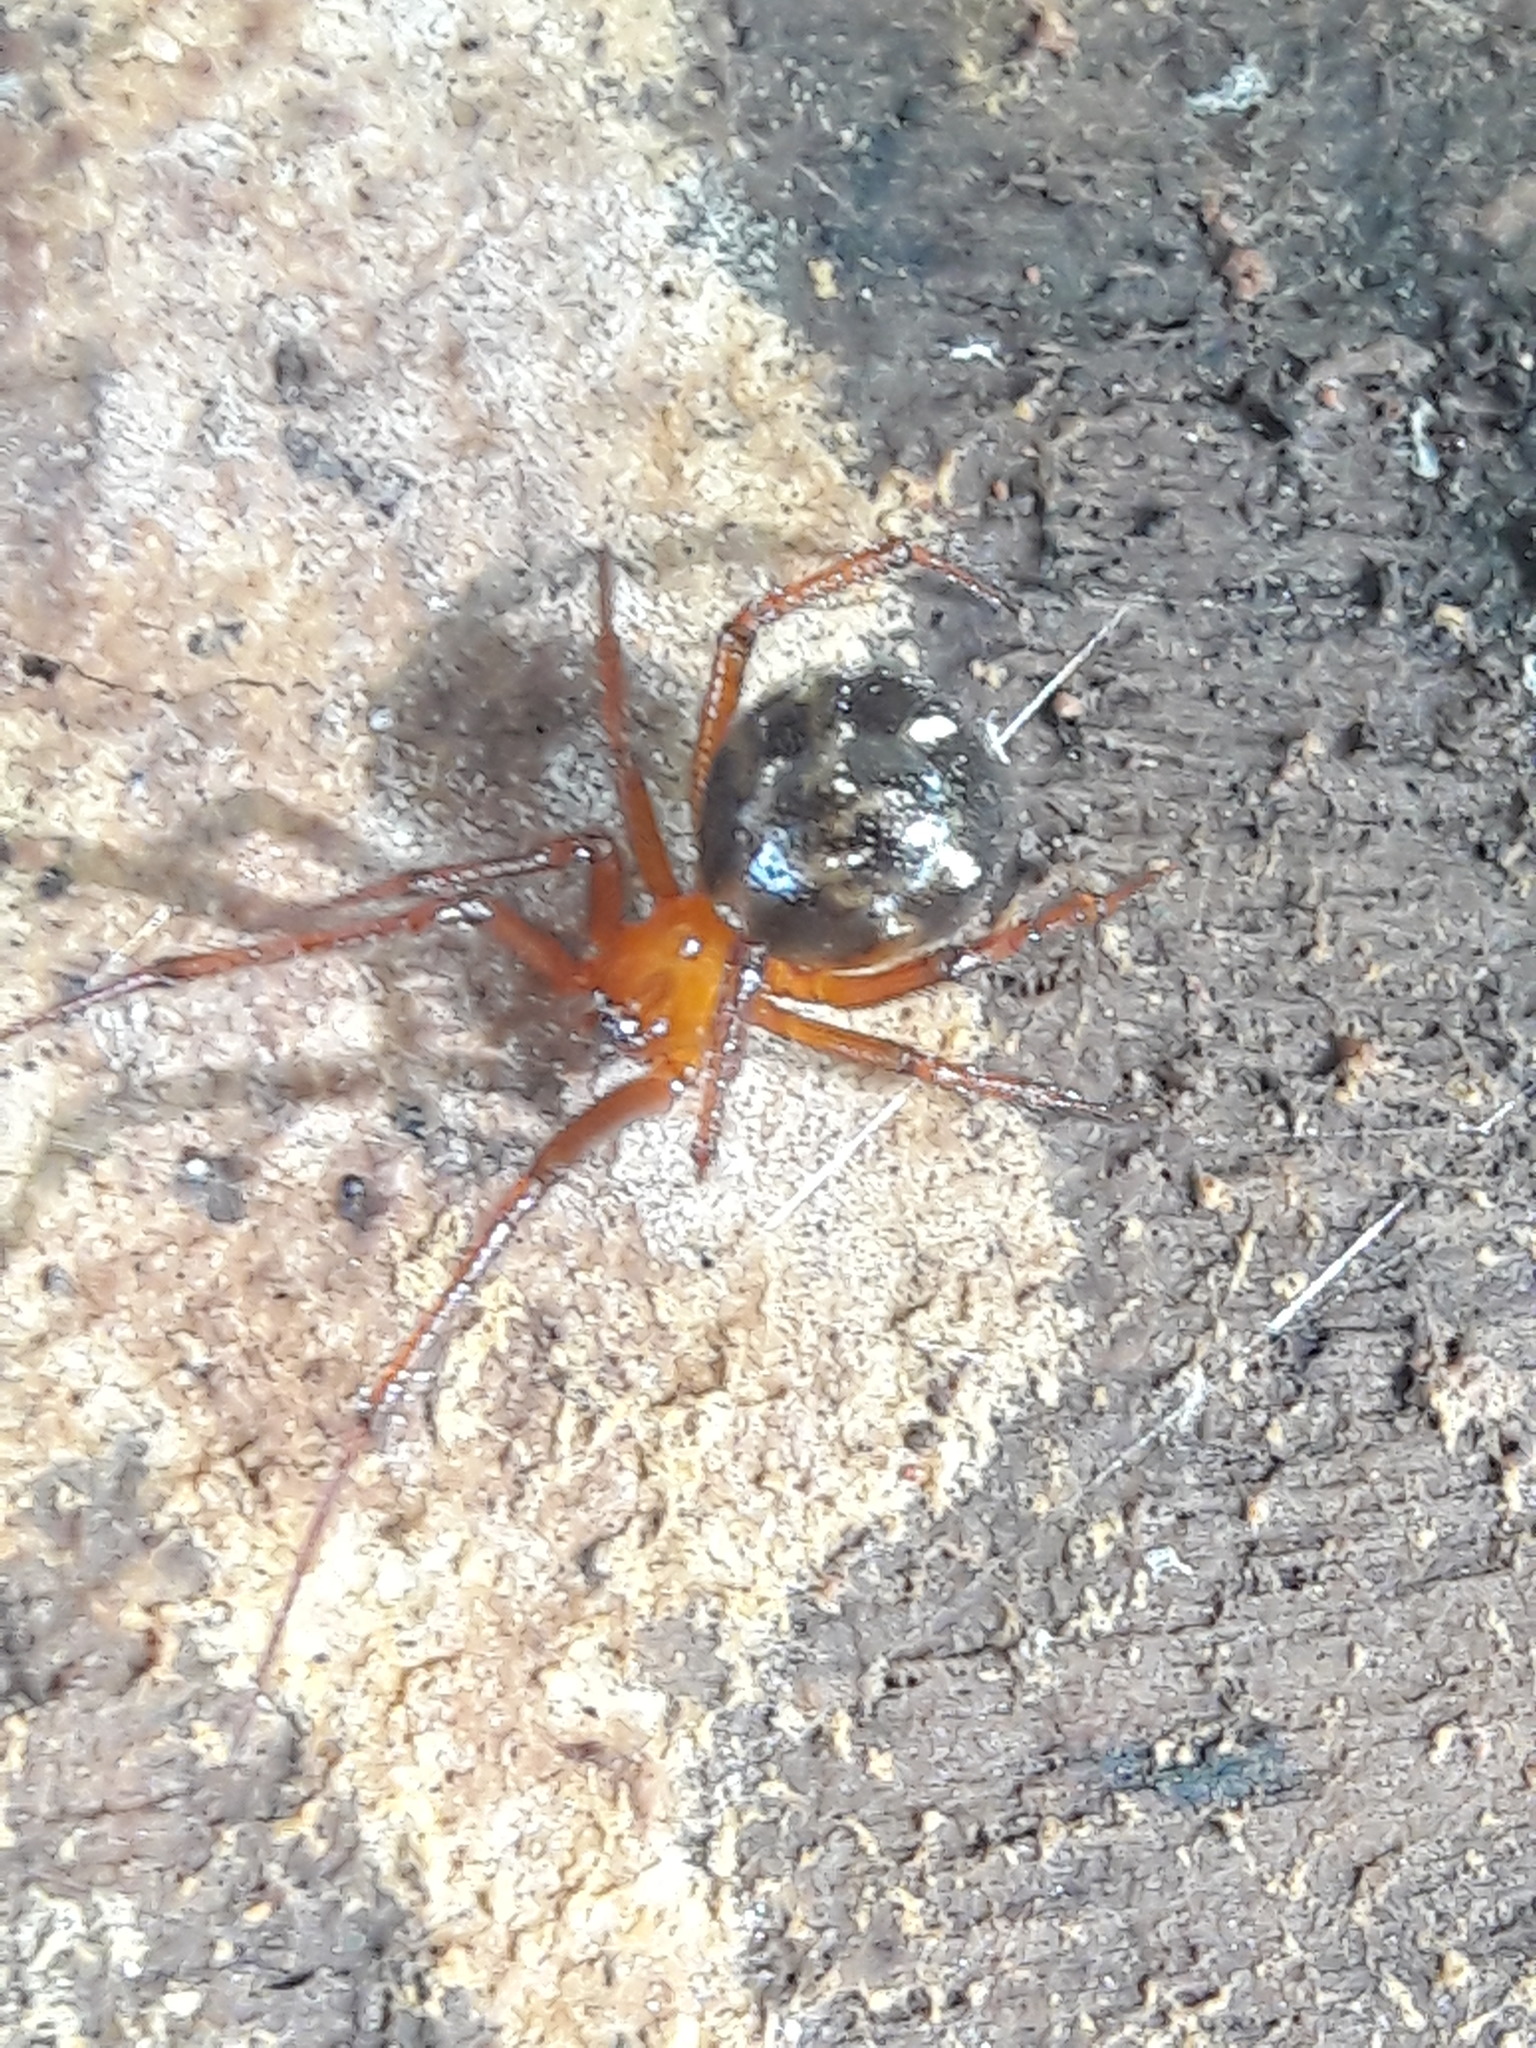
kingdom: Animalia
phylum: Arthropoda
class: Arachnida
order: Araneae
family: Theridiidae
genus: Nesticodes
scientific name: Nesticodes rufipes
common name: Cobweb spiders
